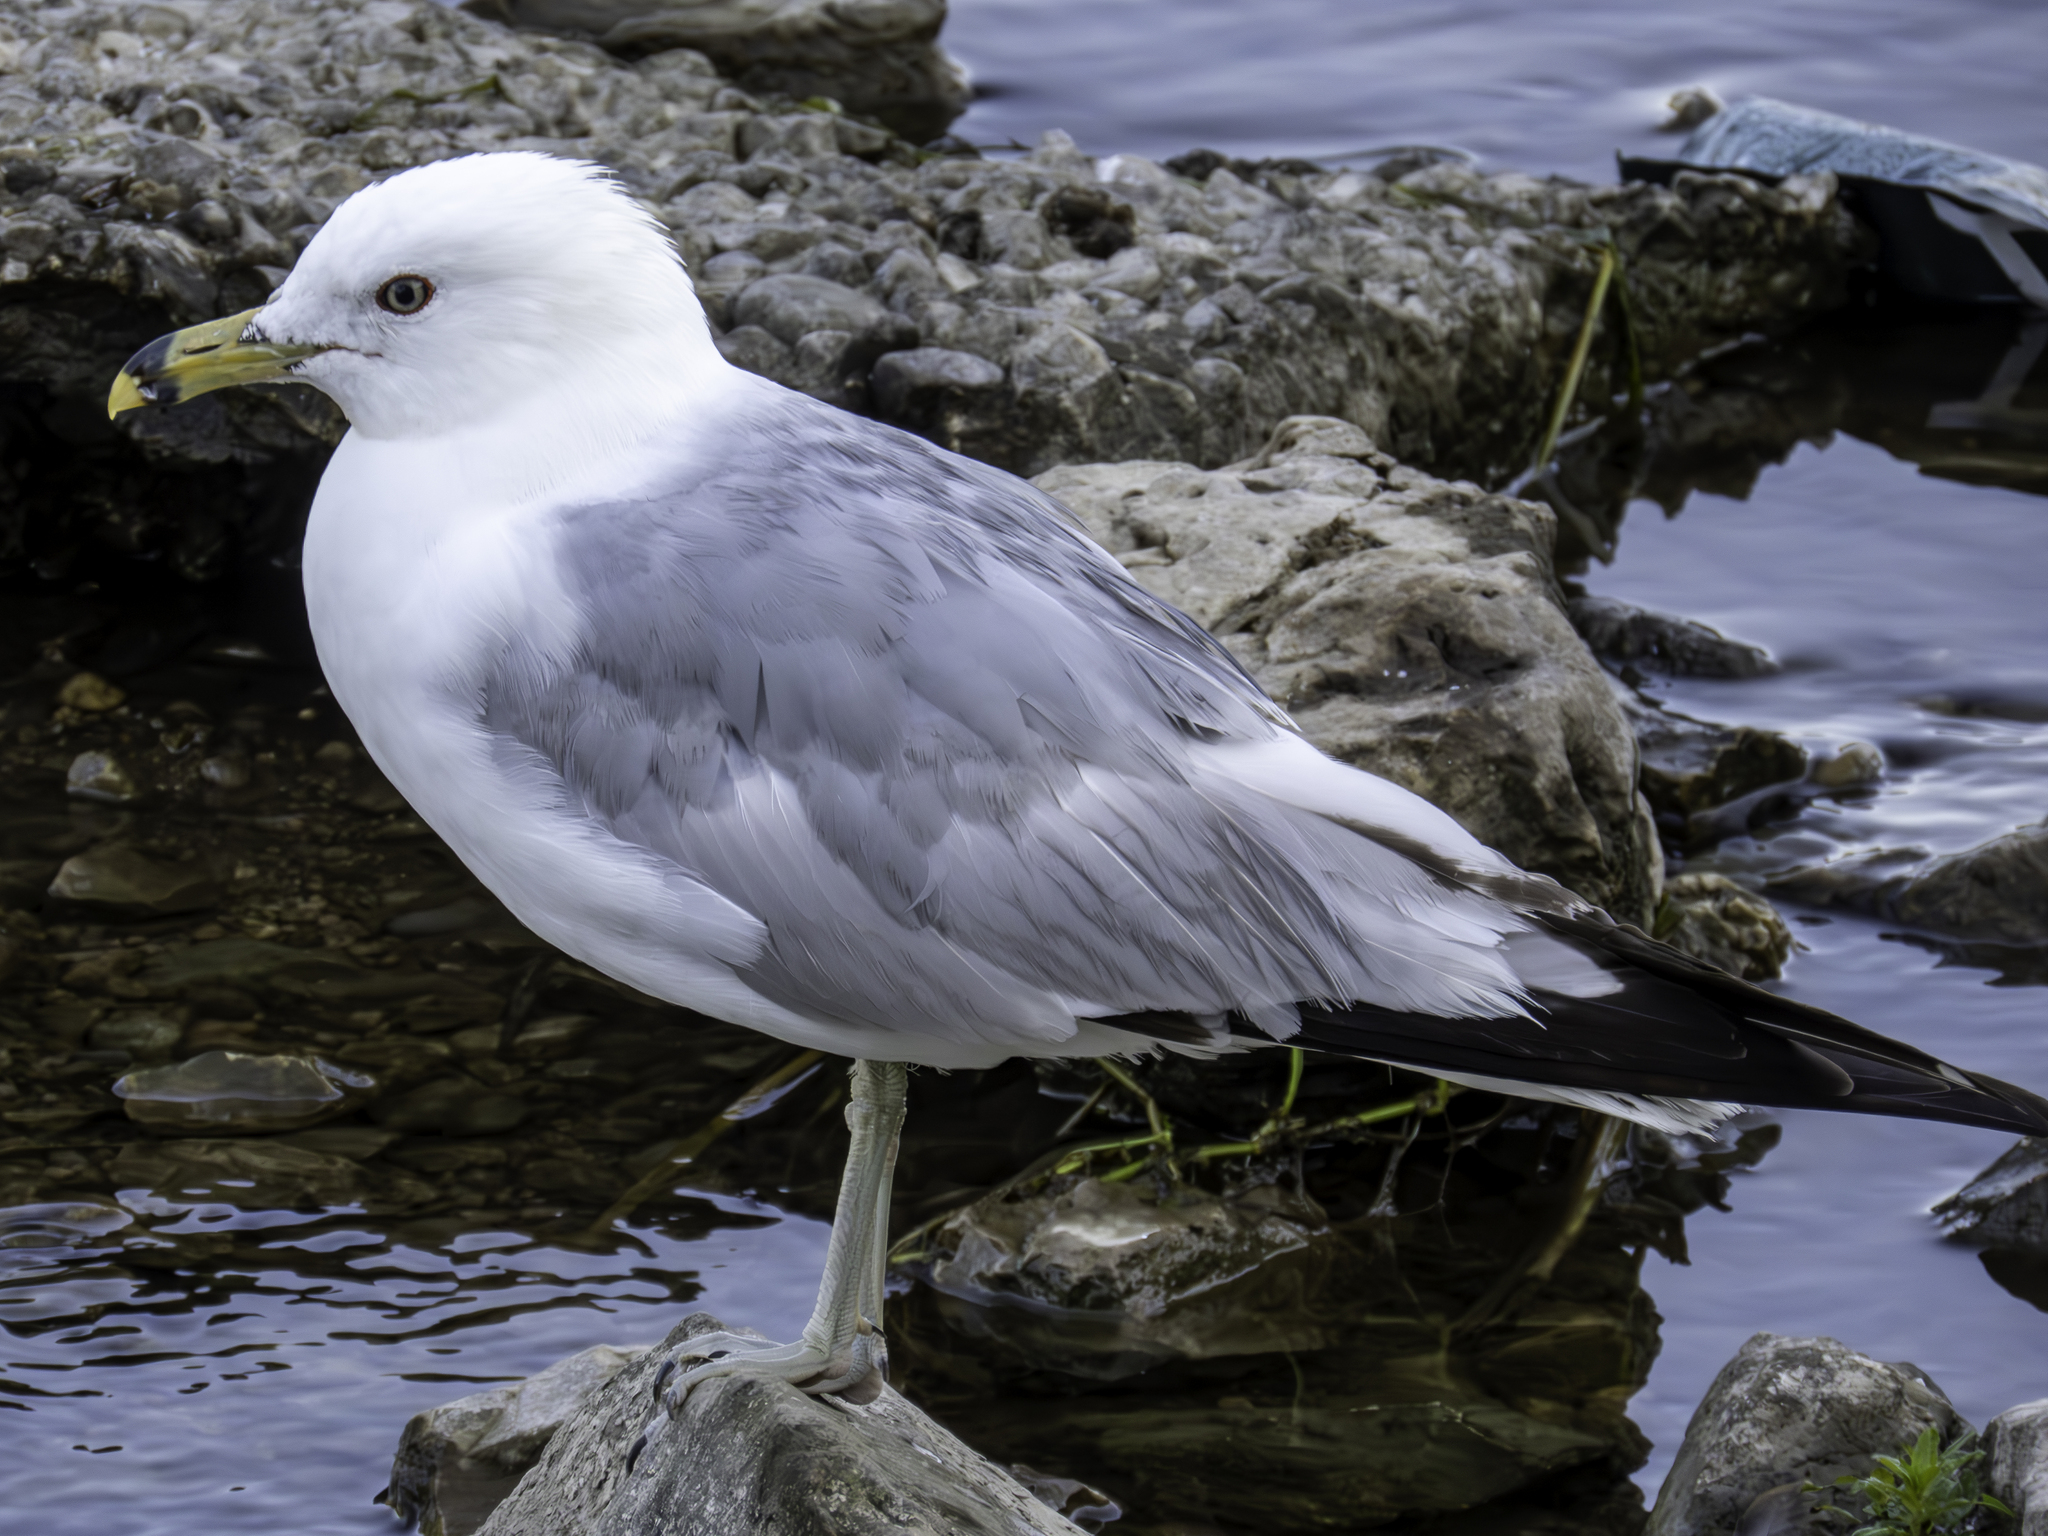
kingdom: Animalia
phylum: Chordata
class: Aves
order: Charadriiformes
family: Laridae
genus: Larus
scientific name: Larus delawarensis
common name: Ring-billed gull
